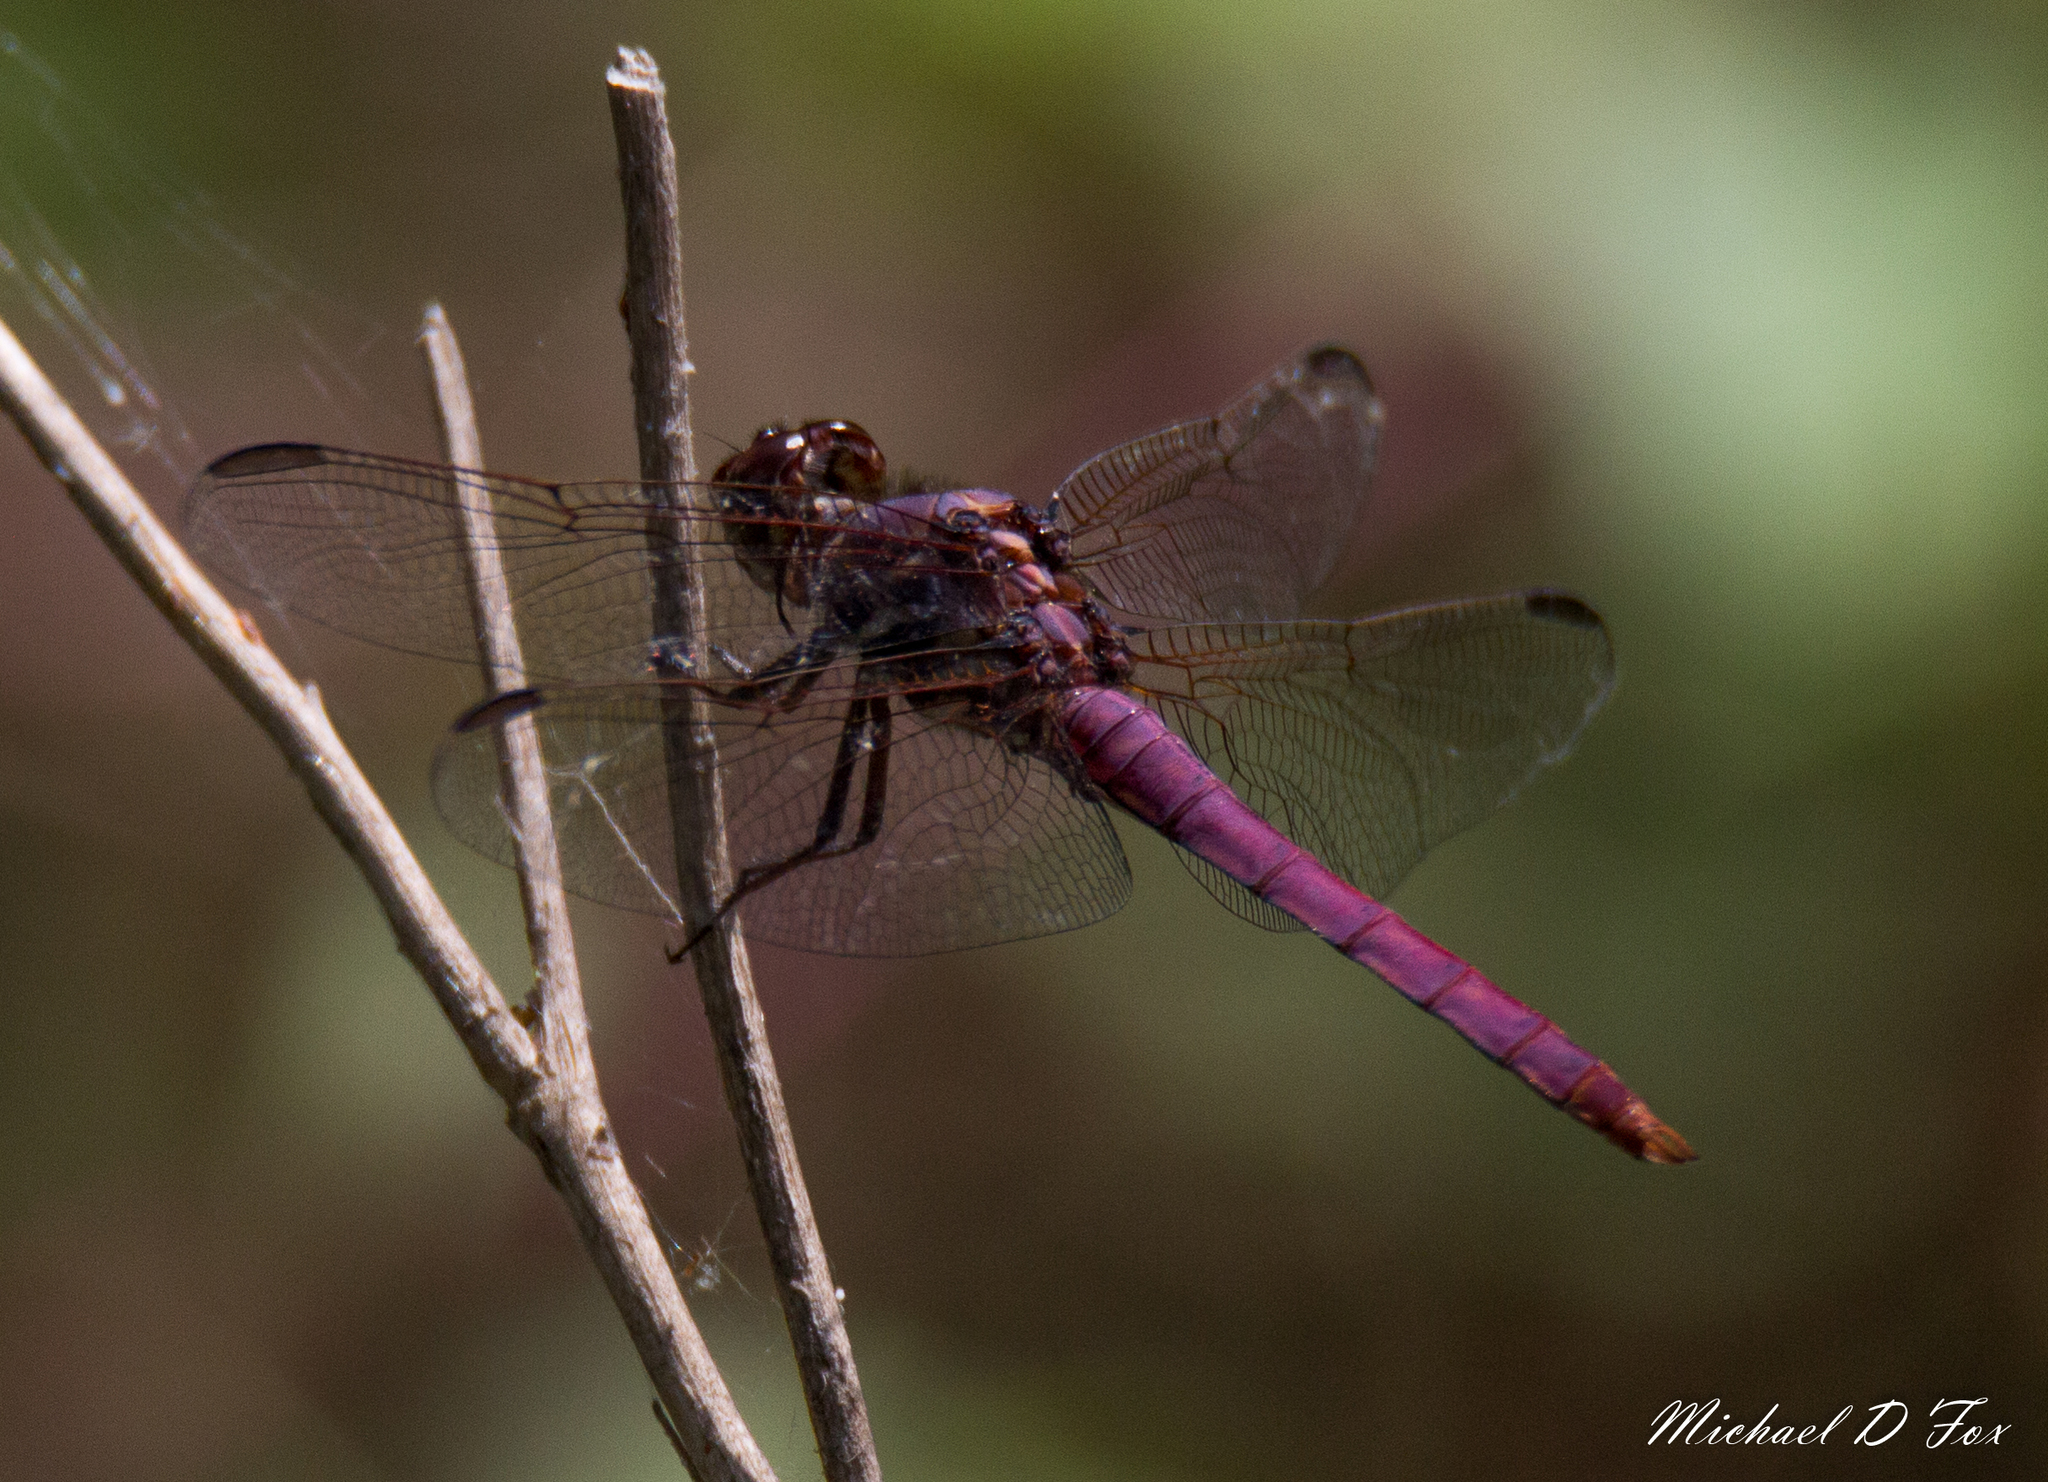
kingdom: Animalia
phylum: Arthropoda
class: Insecta
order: Odonata
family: Libellulidae
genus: Orthemis
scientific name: Orthemis ferruginea
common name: Roseate skimmer
